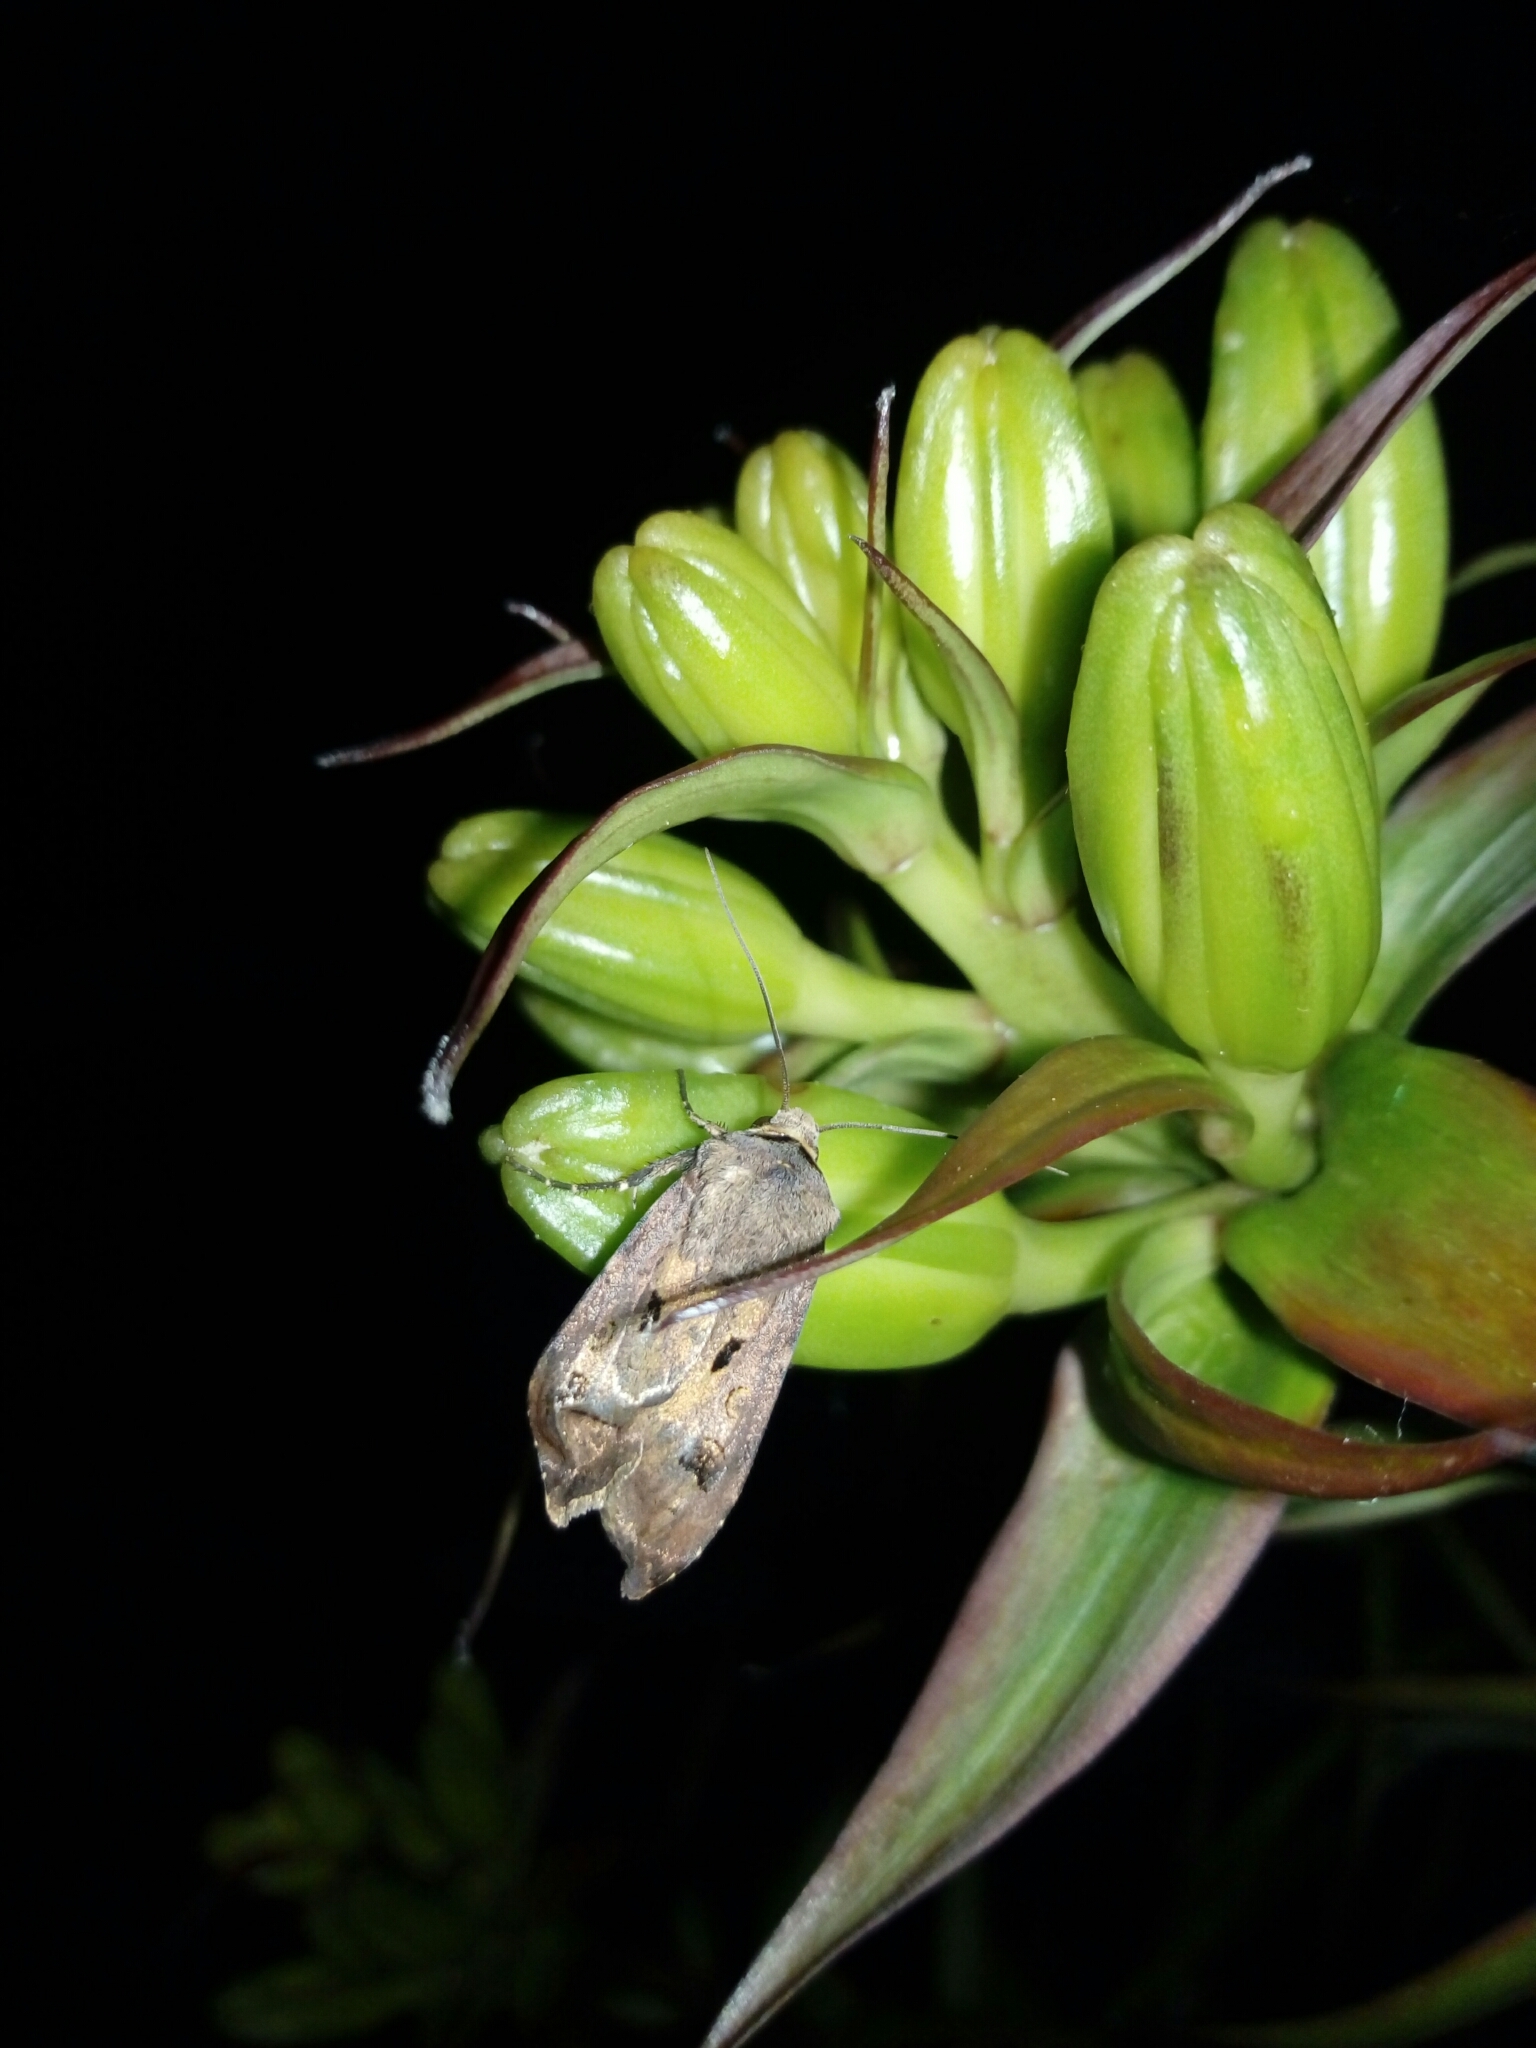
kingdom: Animalia
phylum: Arthropoda
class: Insecta
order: Lepidoptera
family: Noctuidae
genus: Agrotis
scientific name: Agrotis exclamationis
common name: Heart and dart
